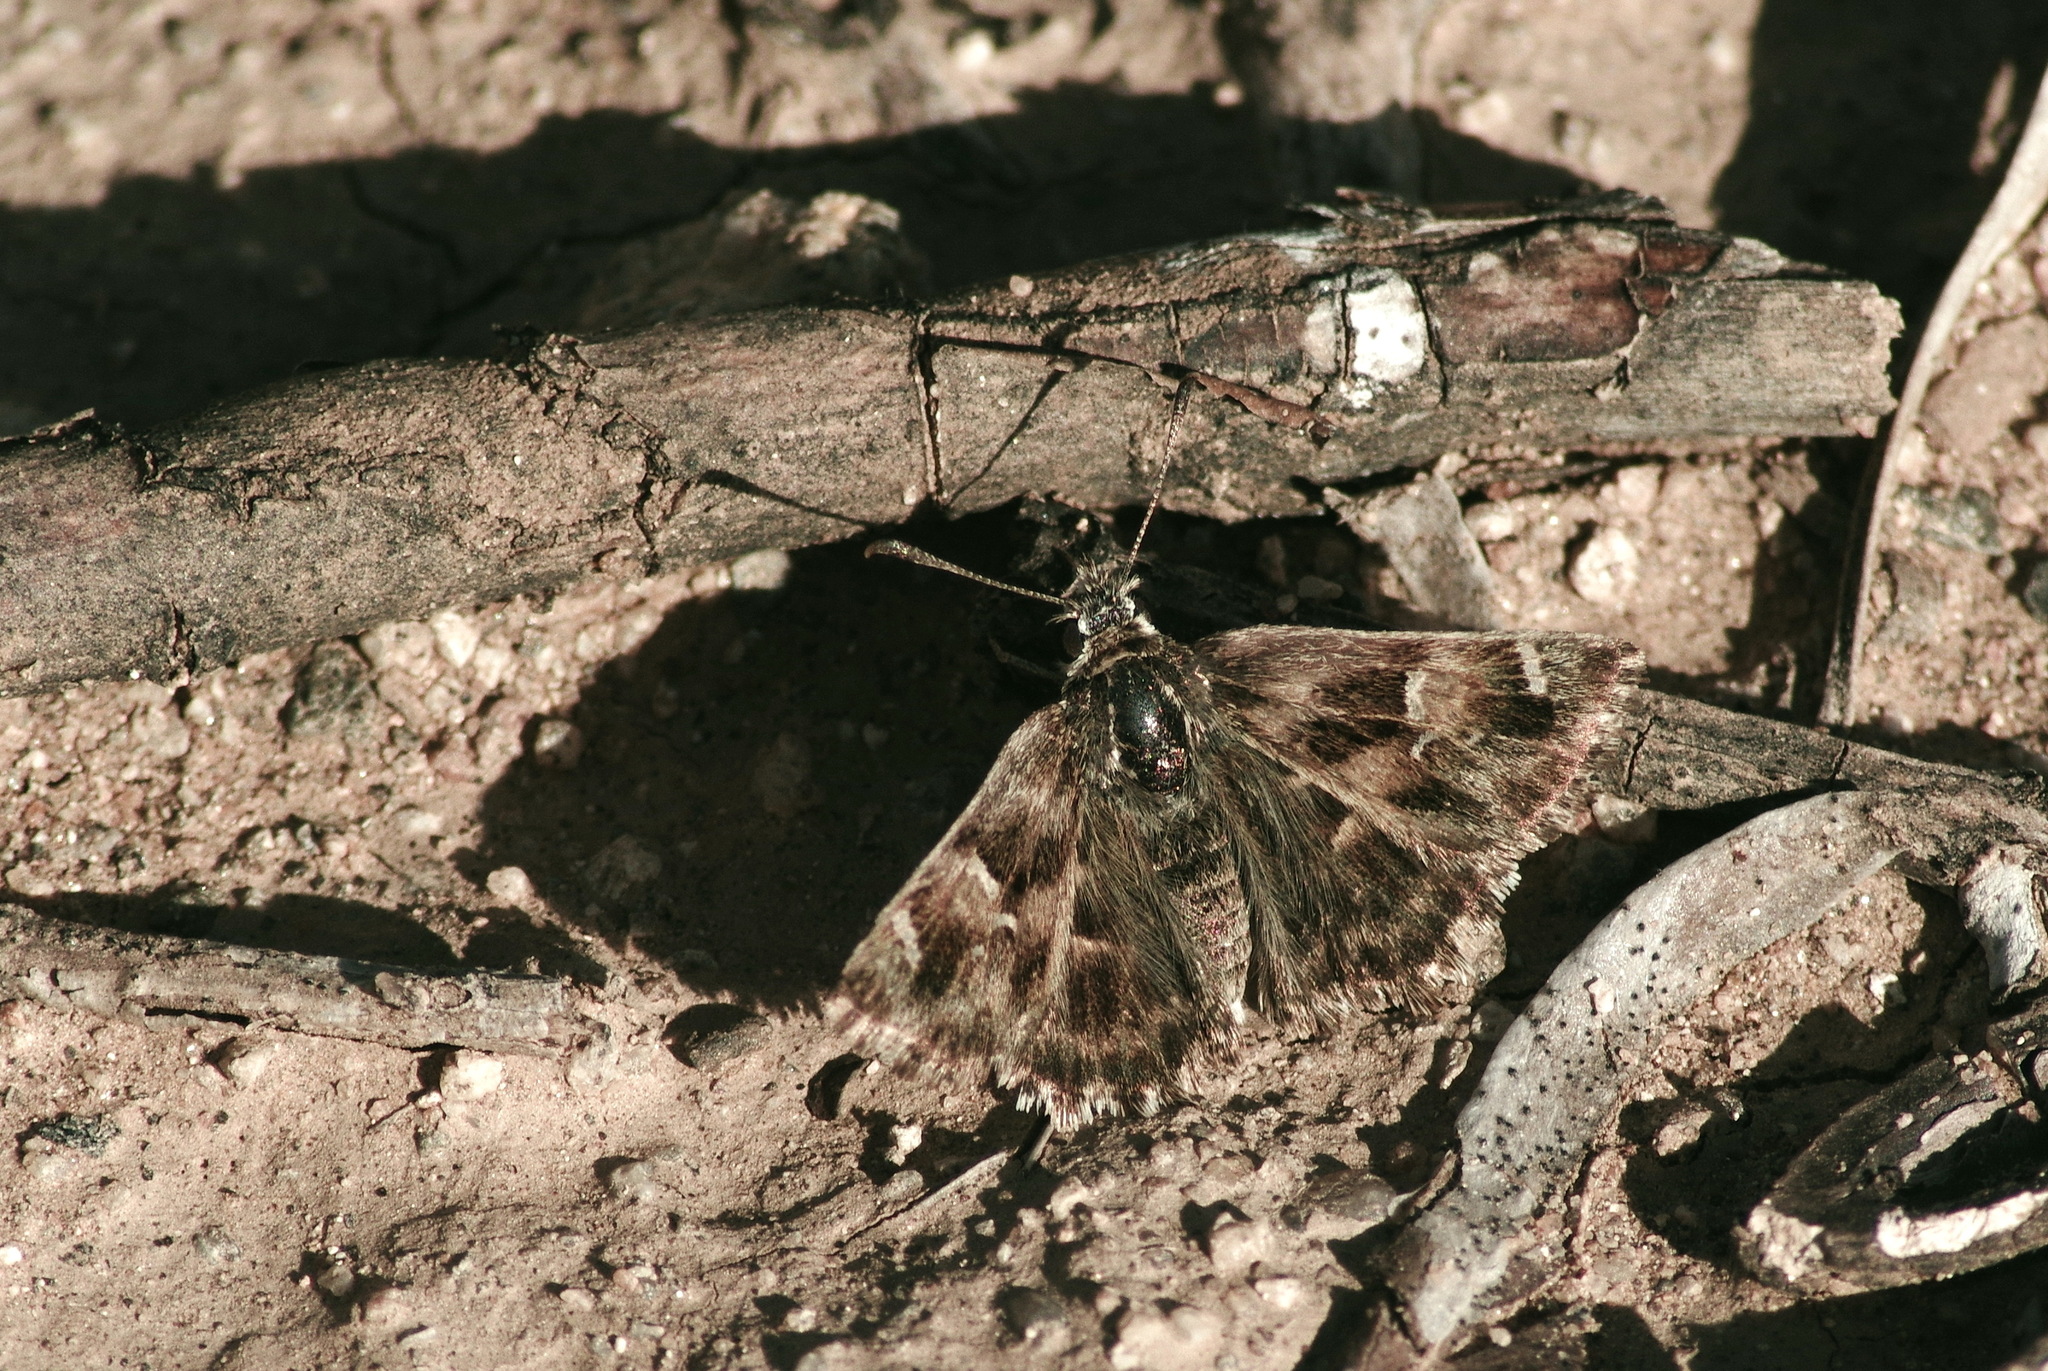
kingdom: Animalia
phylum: Arthropoda
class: Insecta
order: Lepidoptera
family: Hesperiidae
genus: Carcharodus
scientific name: Carcharodus alceae
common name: Mallow skipper
